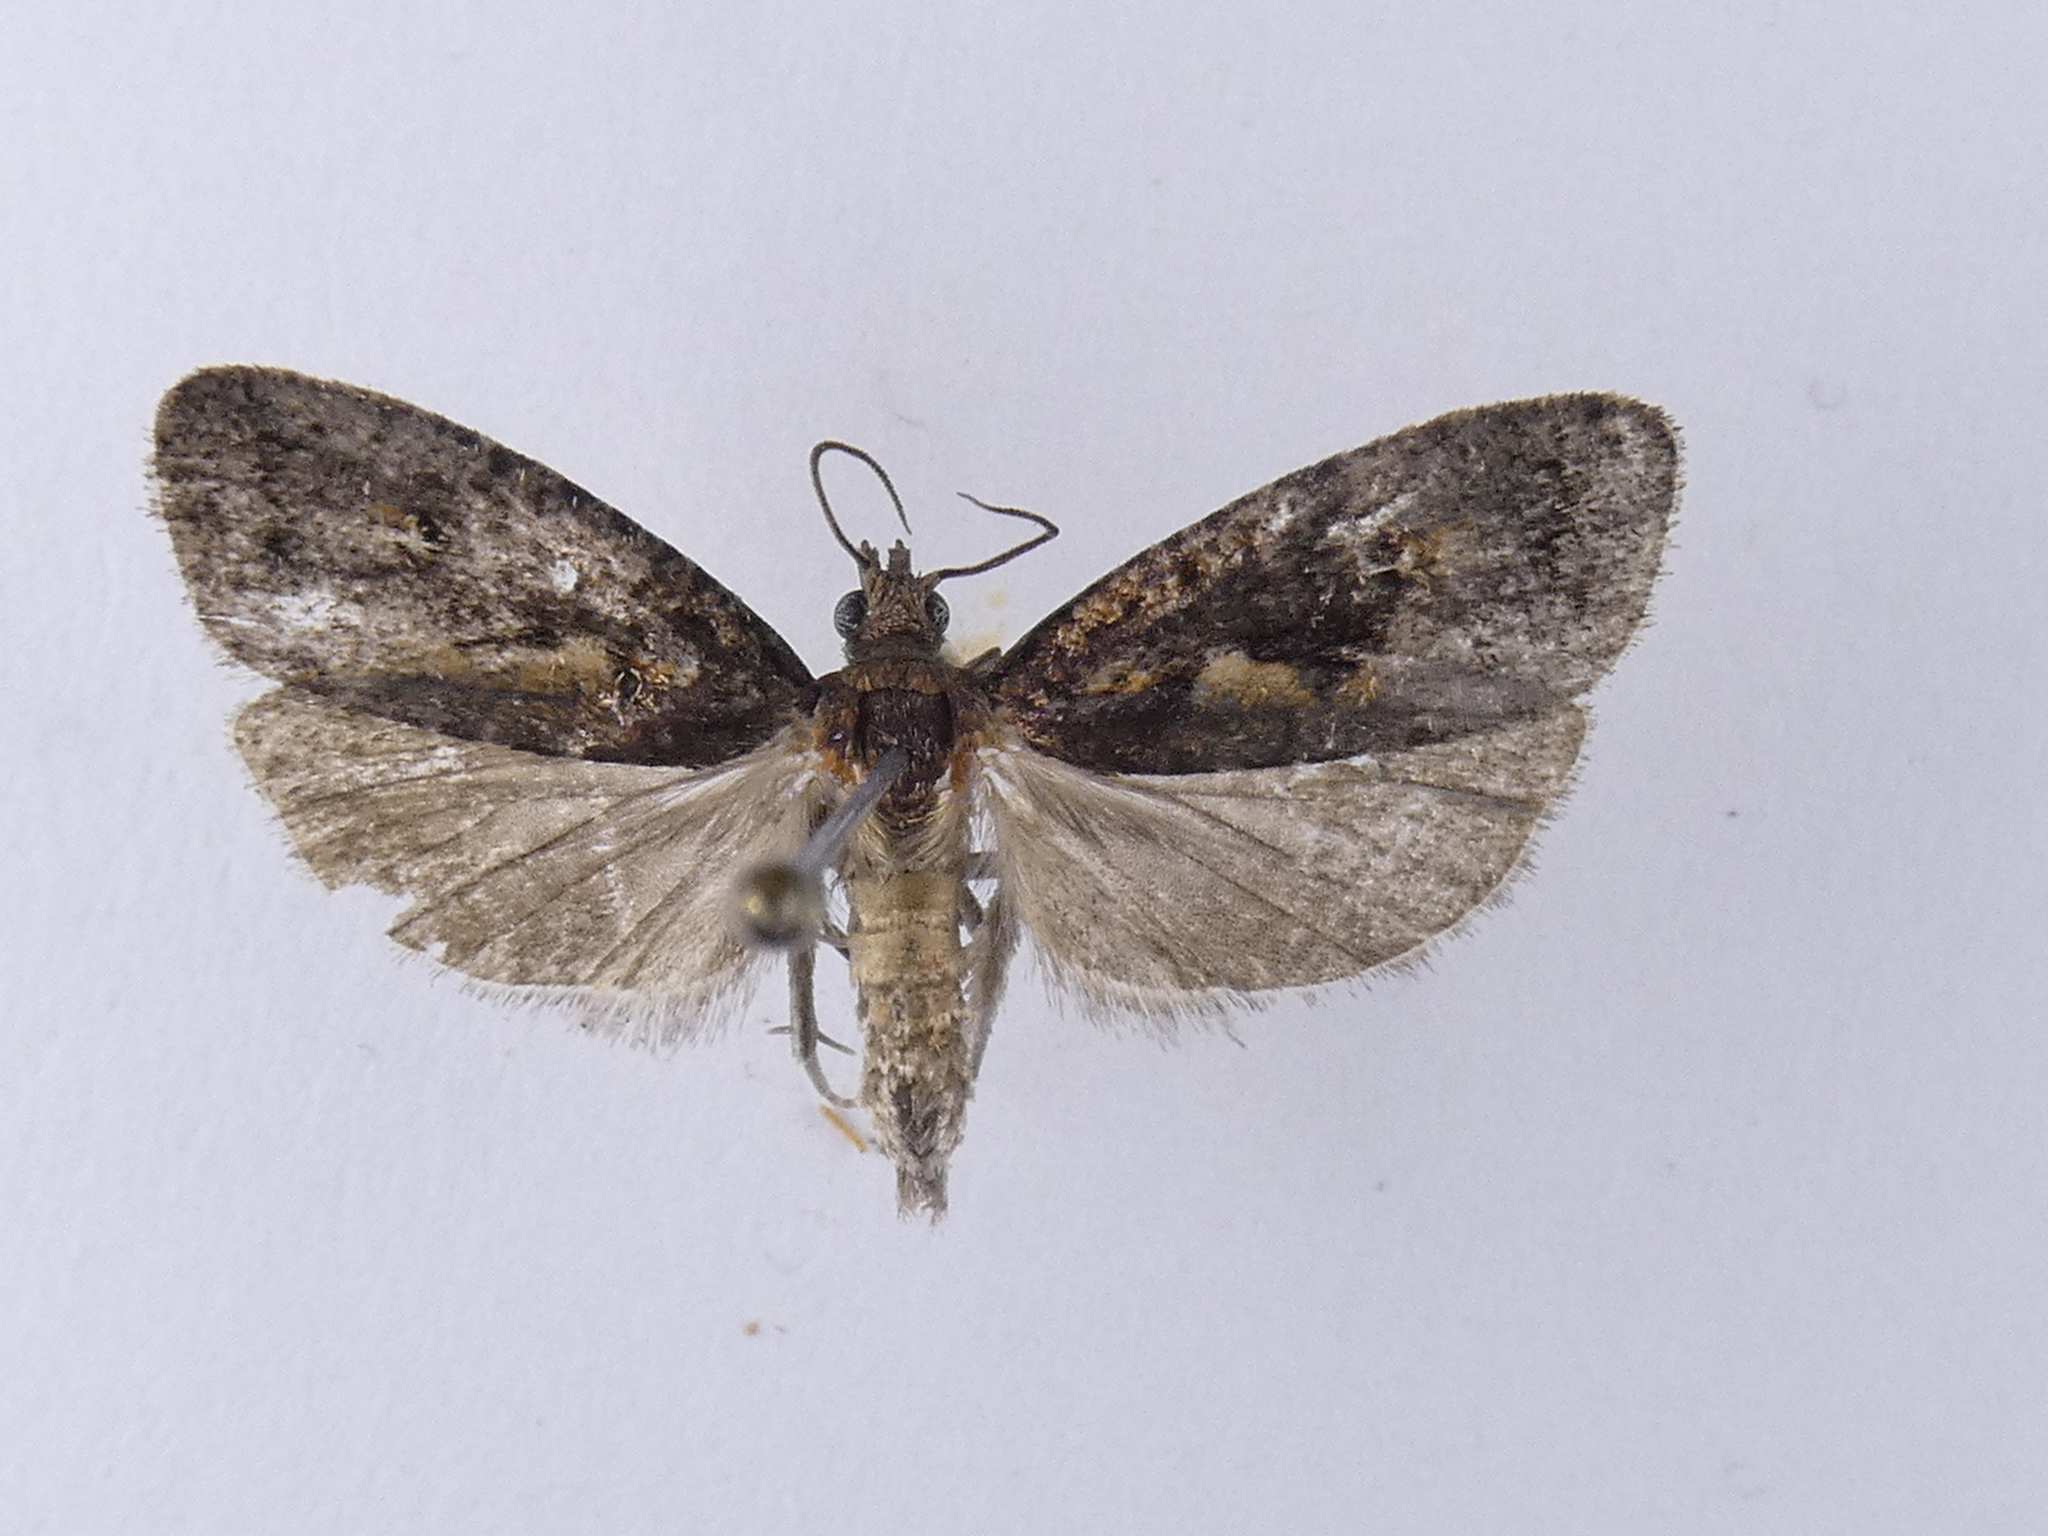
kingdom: Animalia
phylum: Arthropoda
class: Insecta
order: Lepidoptera
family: Tortricidae
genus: Cryptaspasma
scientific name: Cryptaspasma querula
